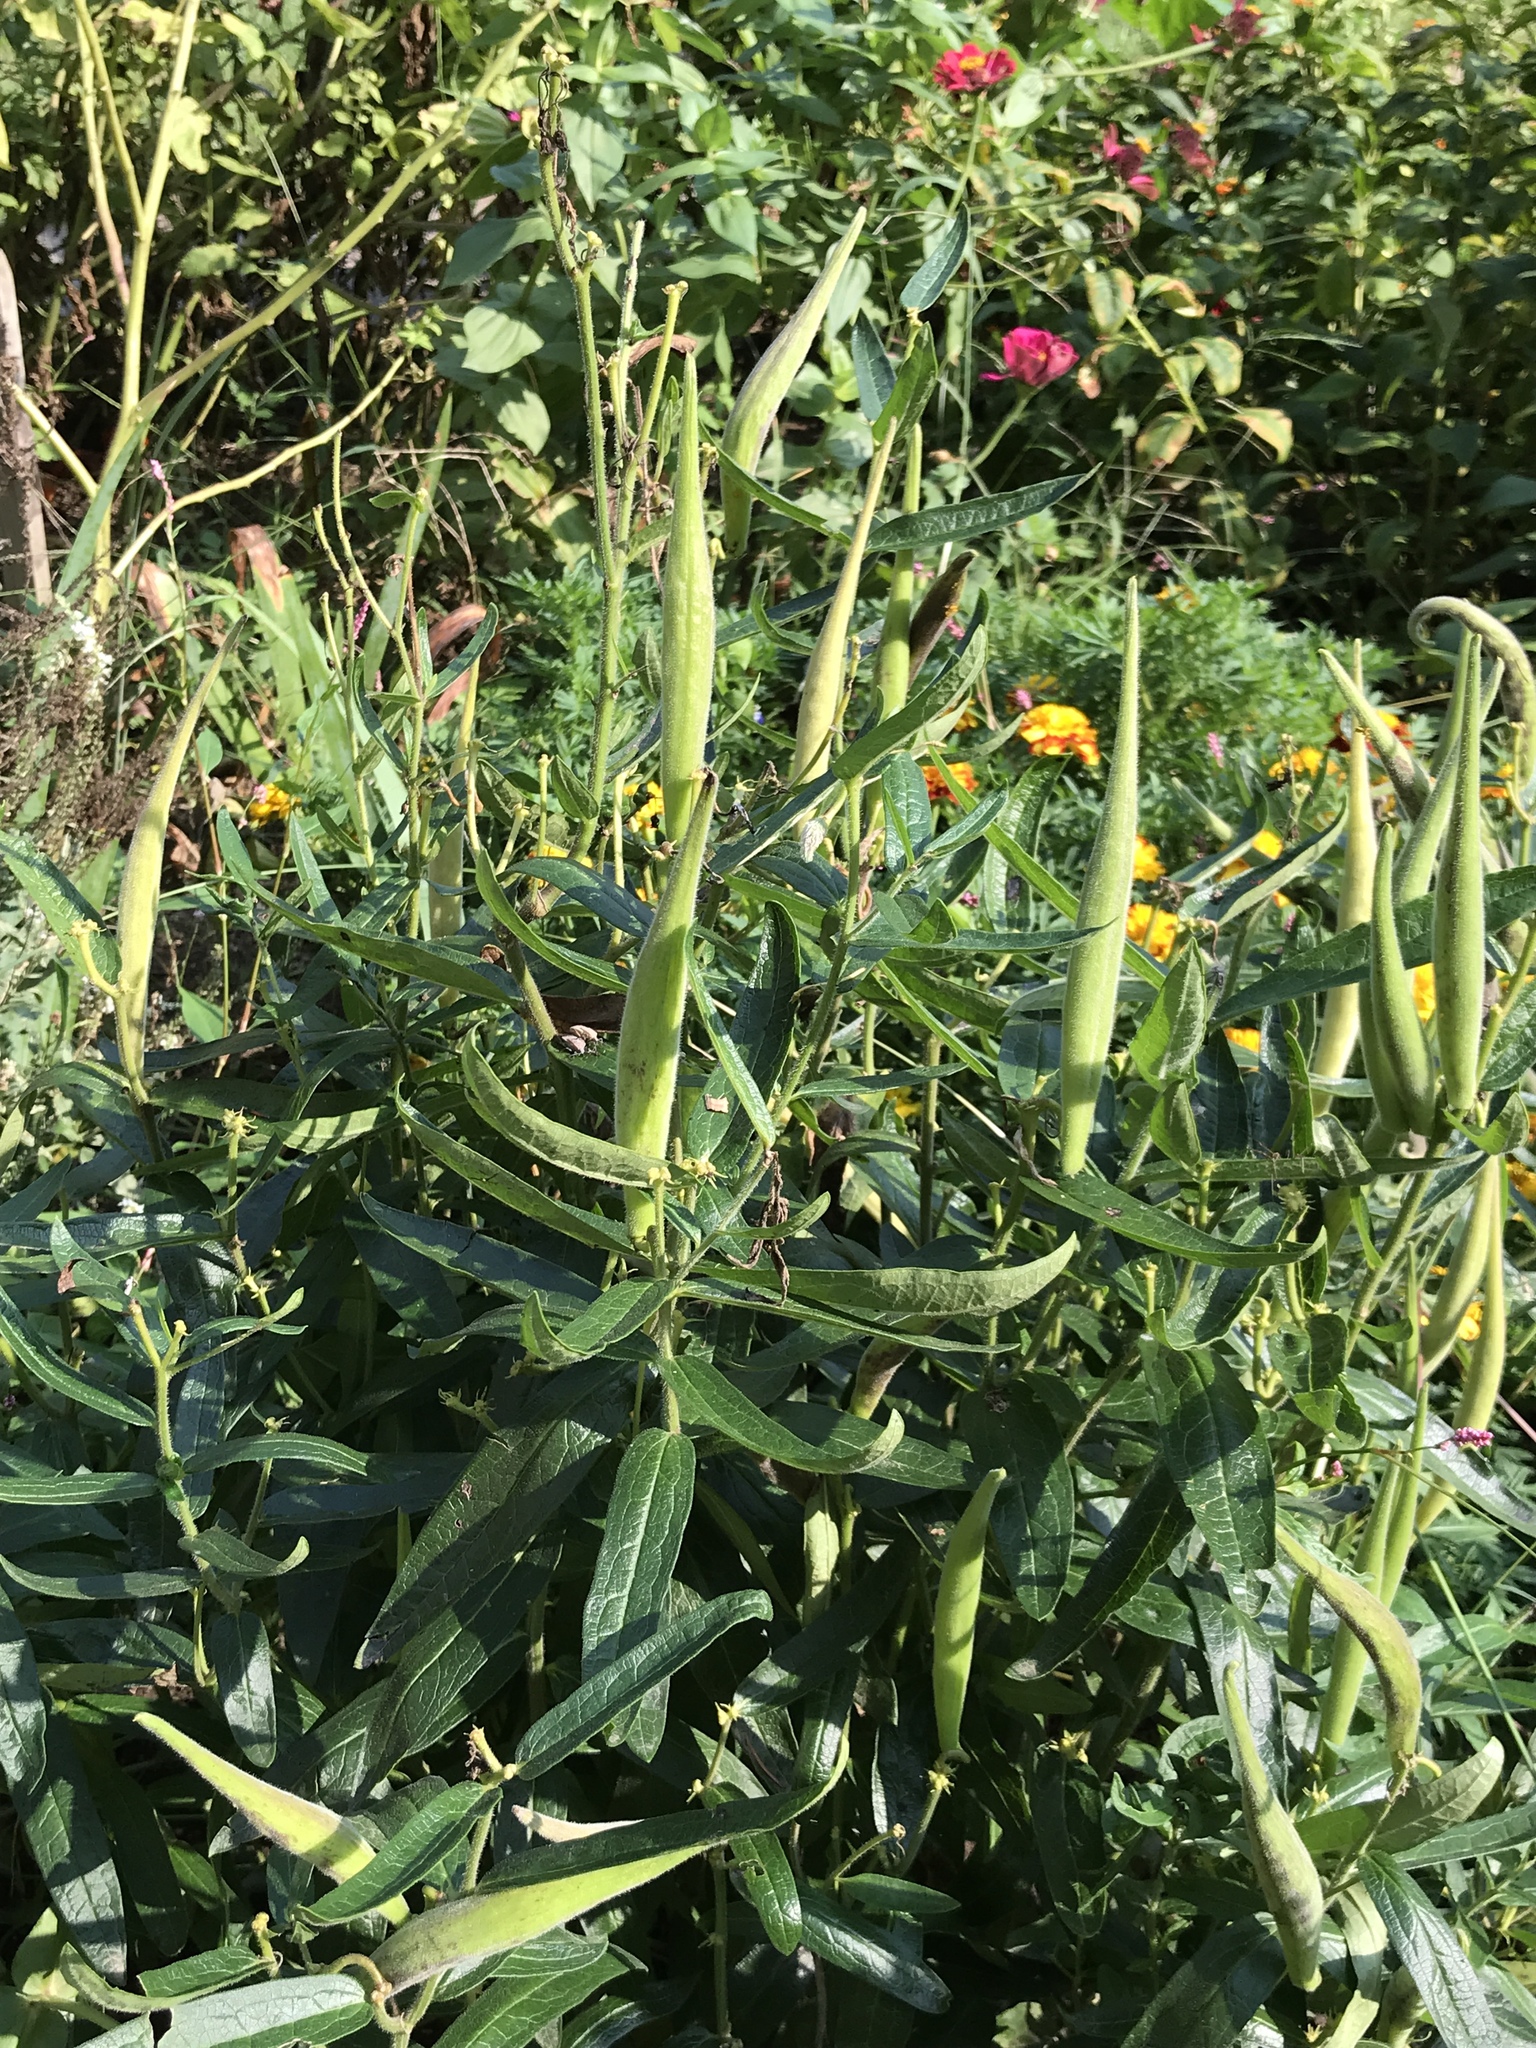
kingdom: Plantae
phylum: Tracheophyta
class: Magnoliopsida
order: Gentianales
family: Apocynaceae
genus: Asclepias
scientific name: Asclepias tuberosa
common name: Butterfly milkweed
